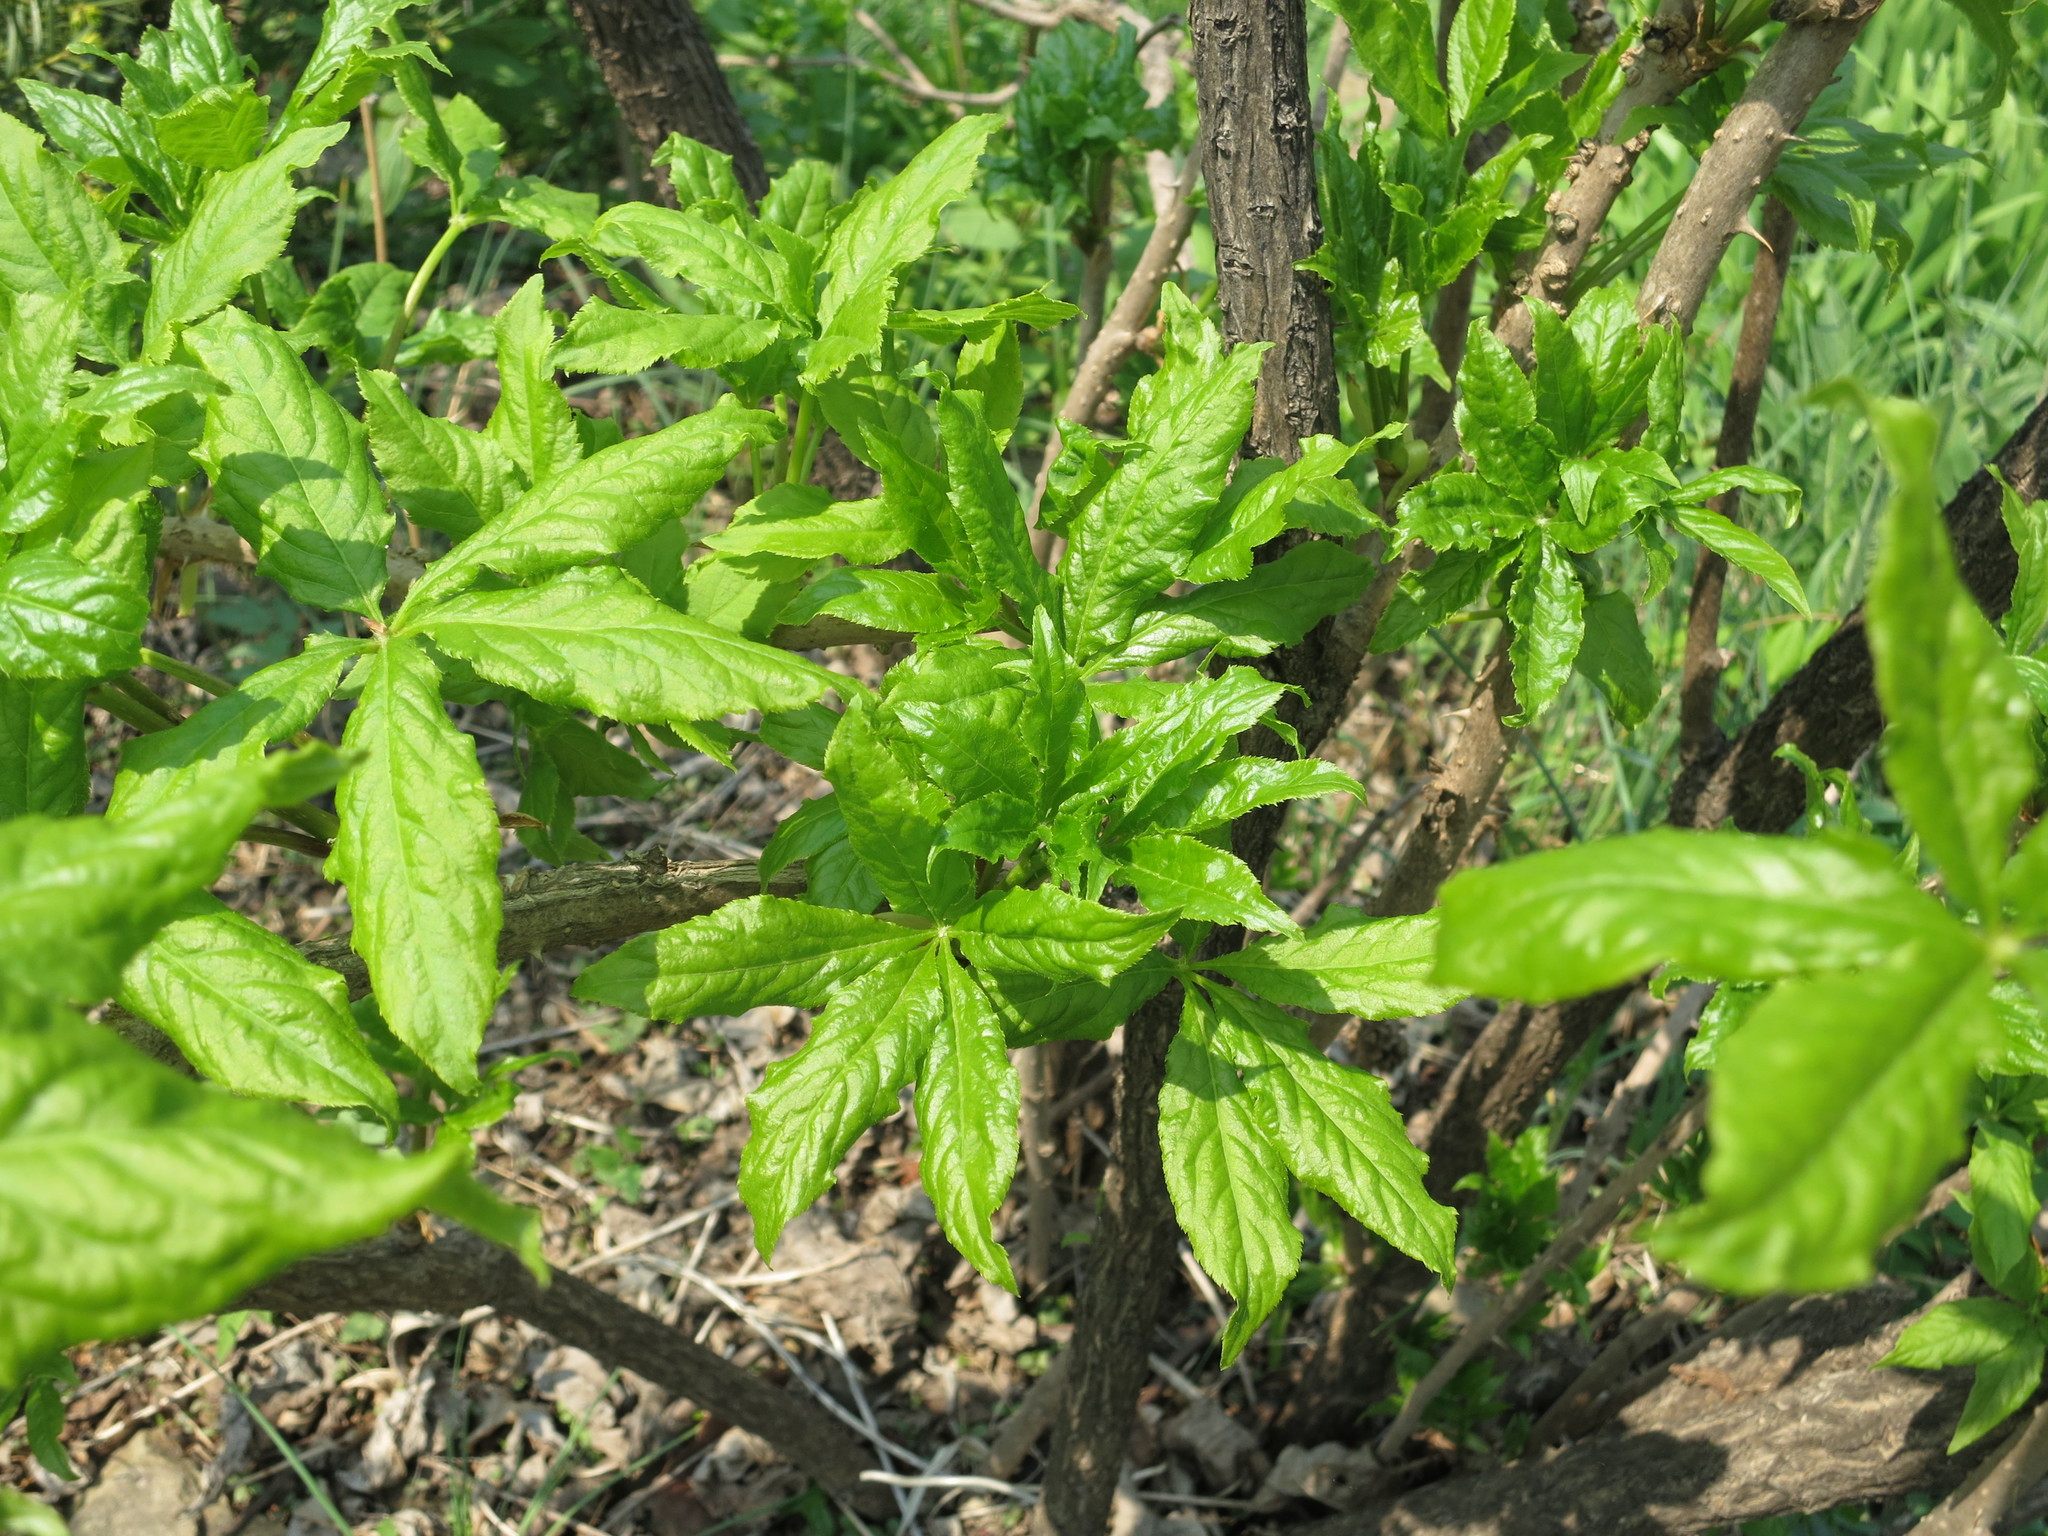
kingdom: Plantae
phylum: Tracheophyta
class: Magnoliopsida
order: Apiales
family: Araliaceae
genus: Eleutherococcus
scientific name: Eleutherococcus sessiliflorus
